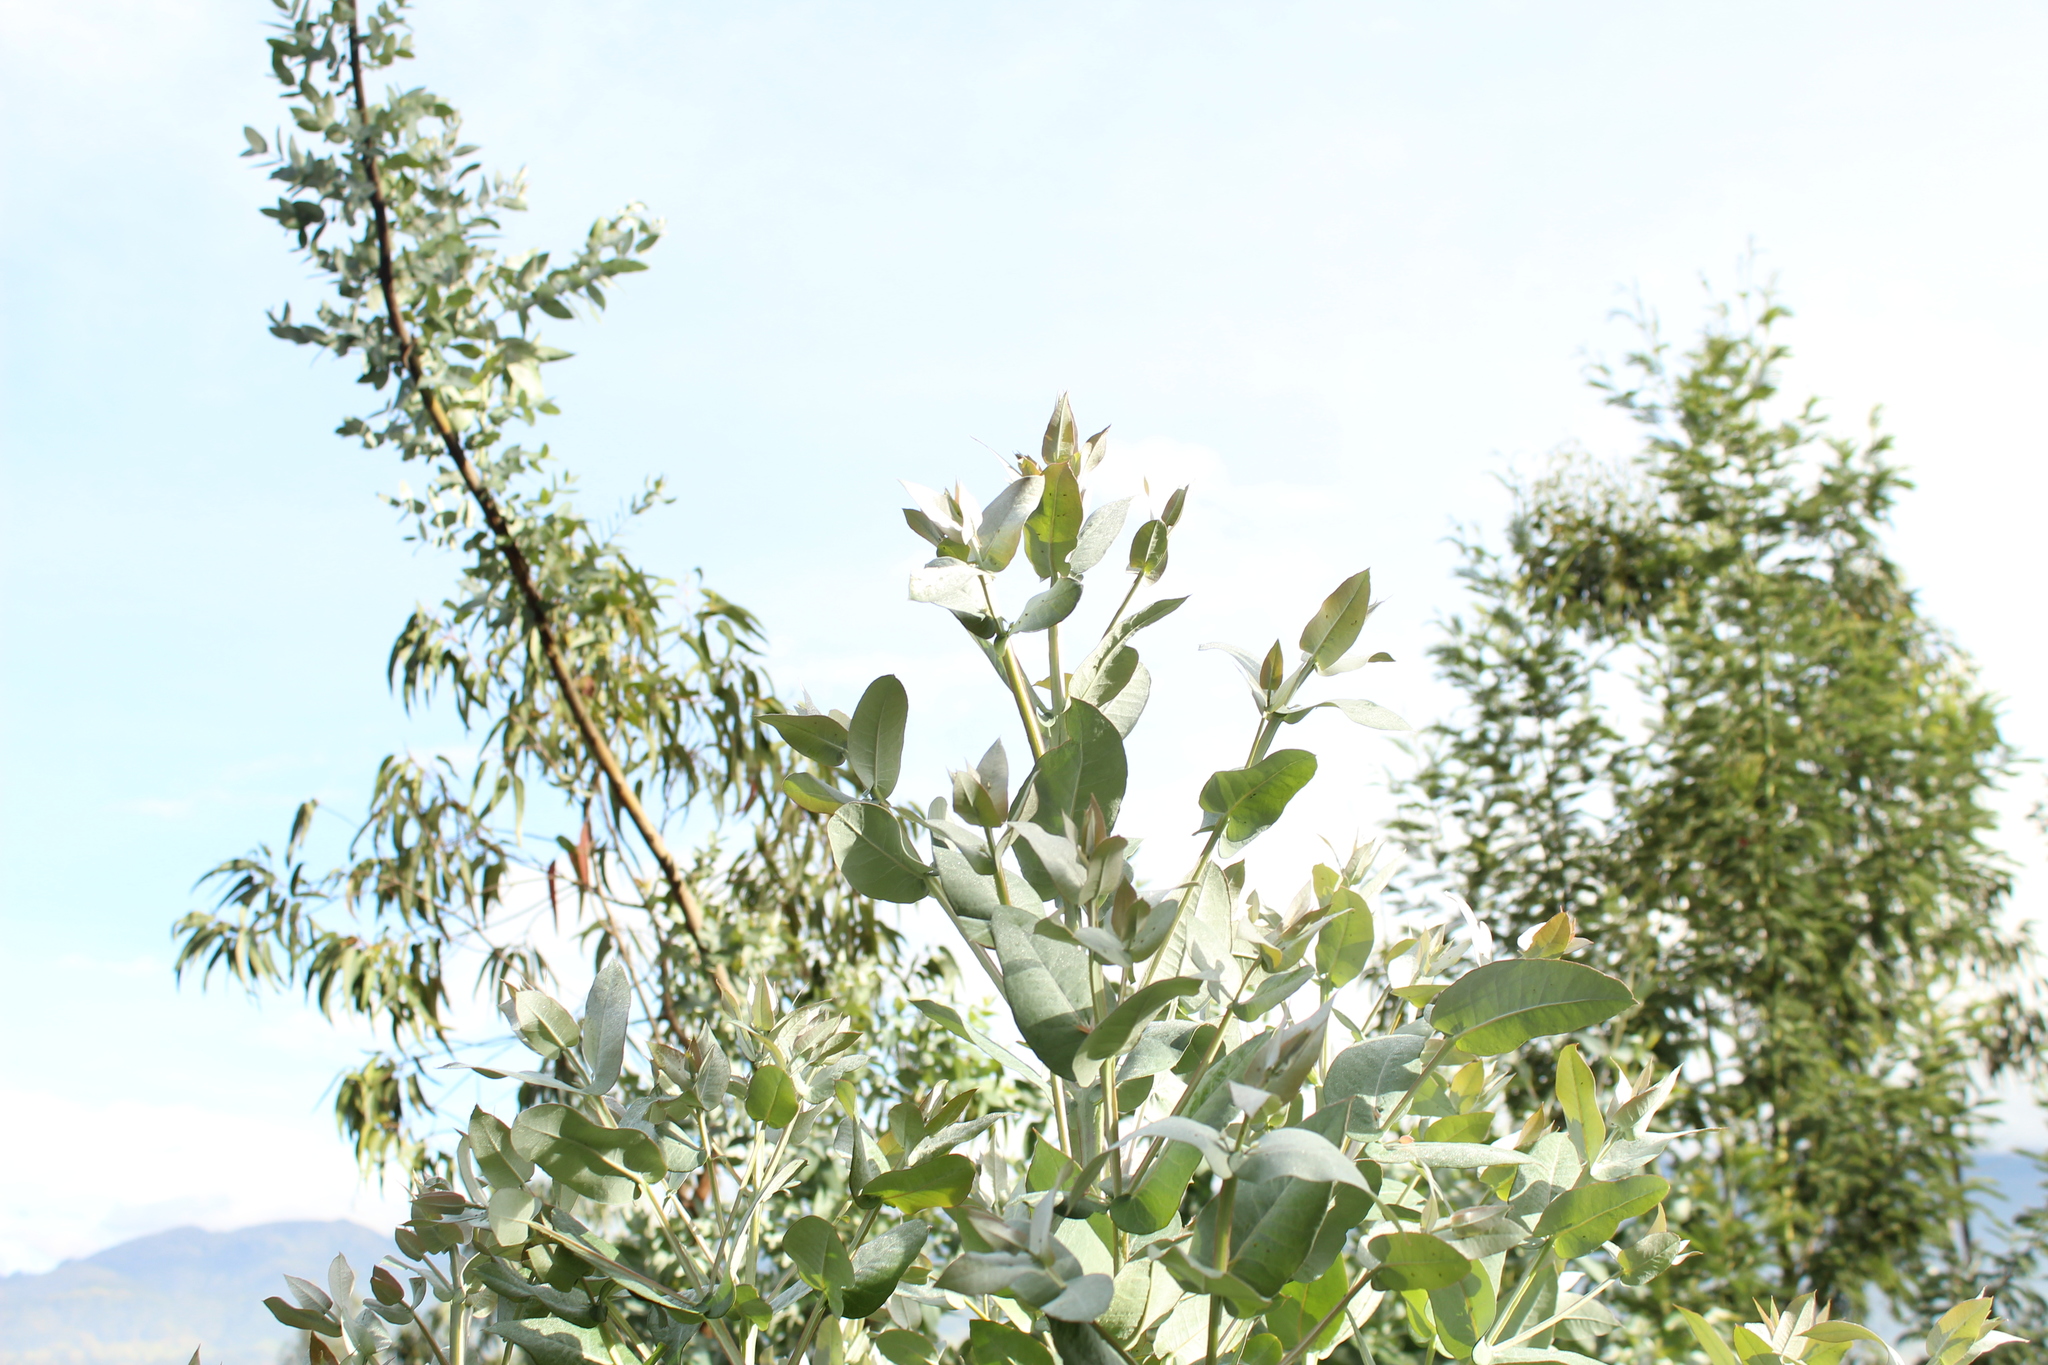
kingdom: Plantae
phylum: Tracheophyta
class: Magnoliopsida
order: Myrtales
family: Myrtaceae
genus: Eucalyptus
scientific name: Eucalyptus globulus
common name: Southern blue-gum
